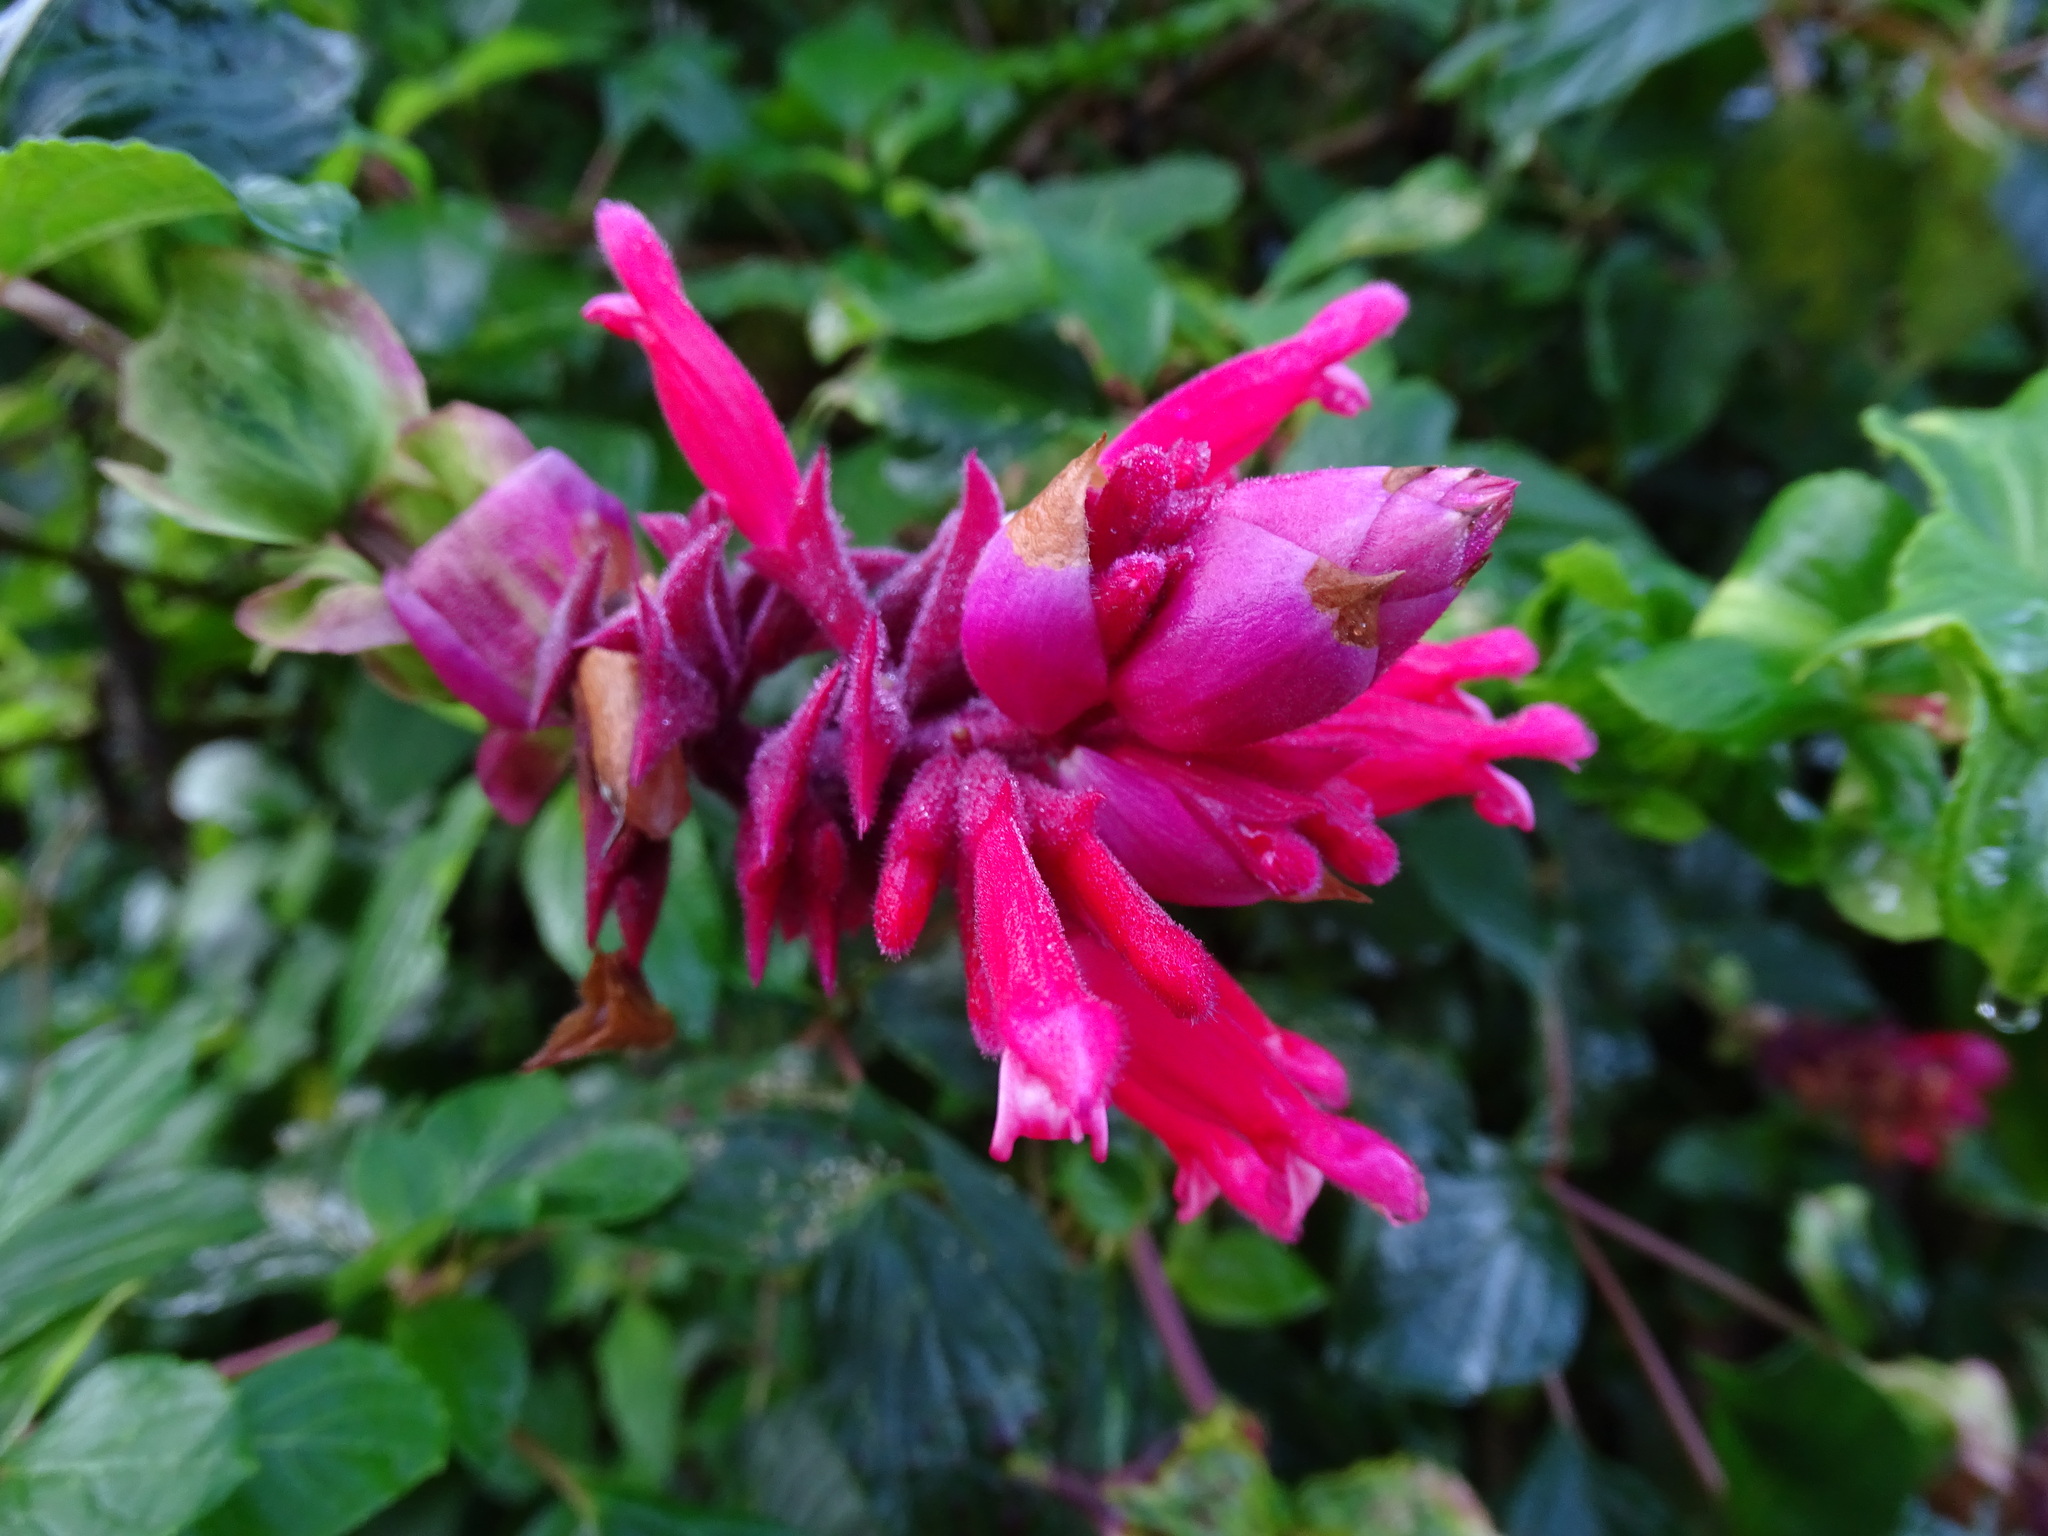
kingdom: Plantae
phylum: Tracheophyta
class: Magnoliopsida
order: Lamiales
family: Lamiaceae
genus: Salvia
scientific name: Salvia wagneriana
